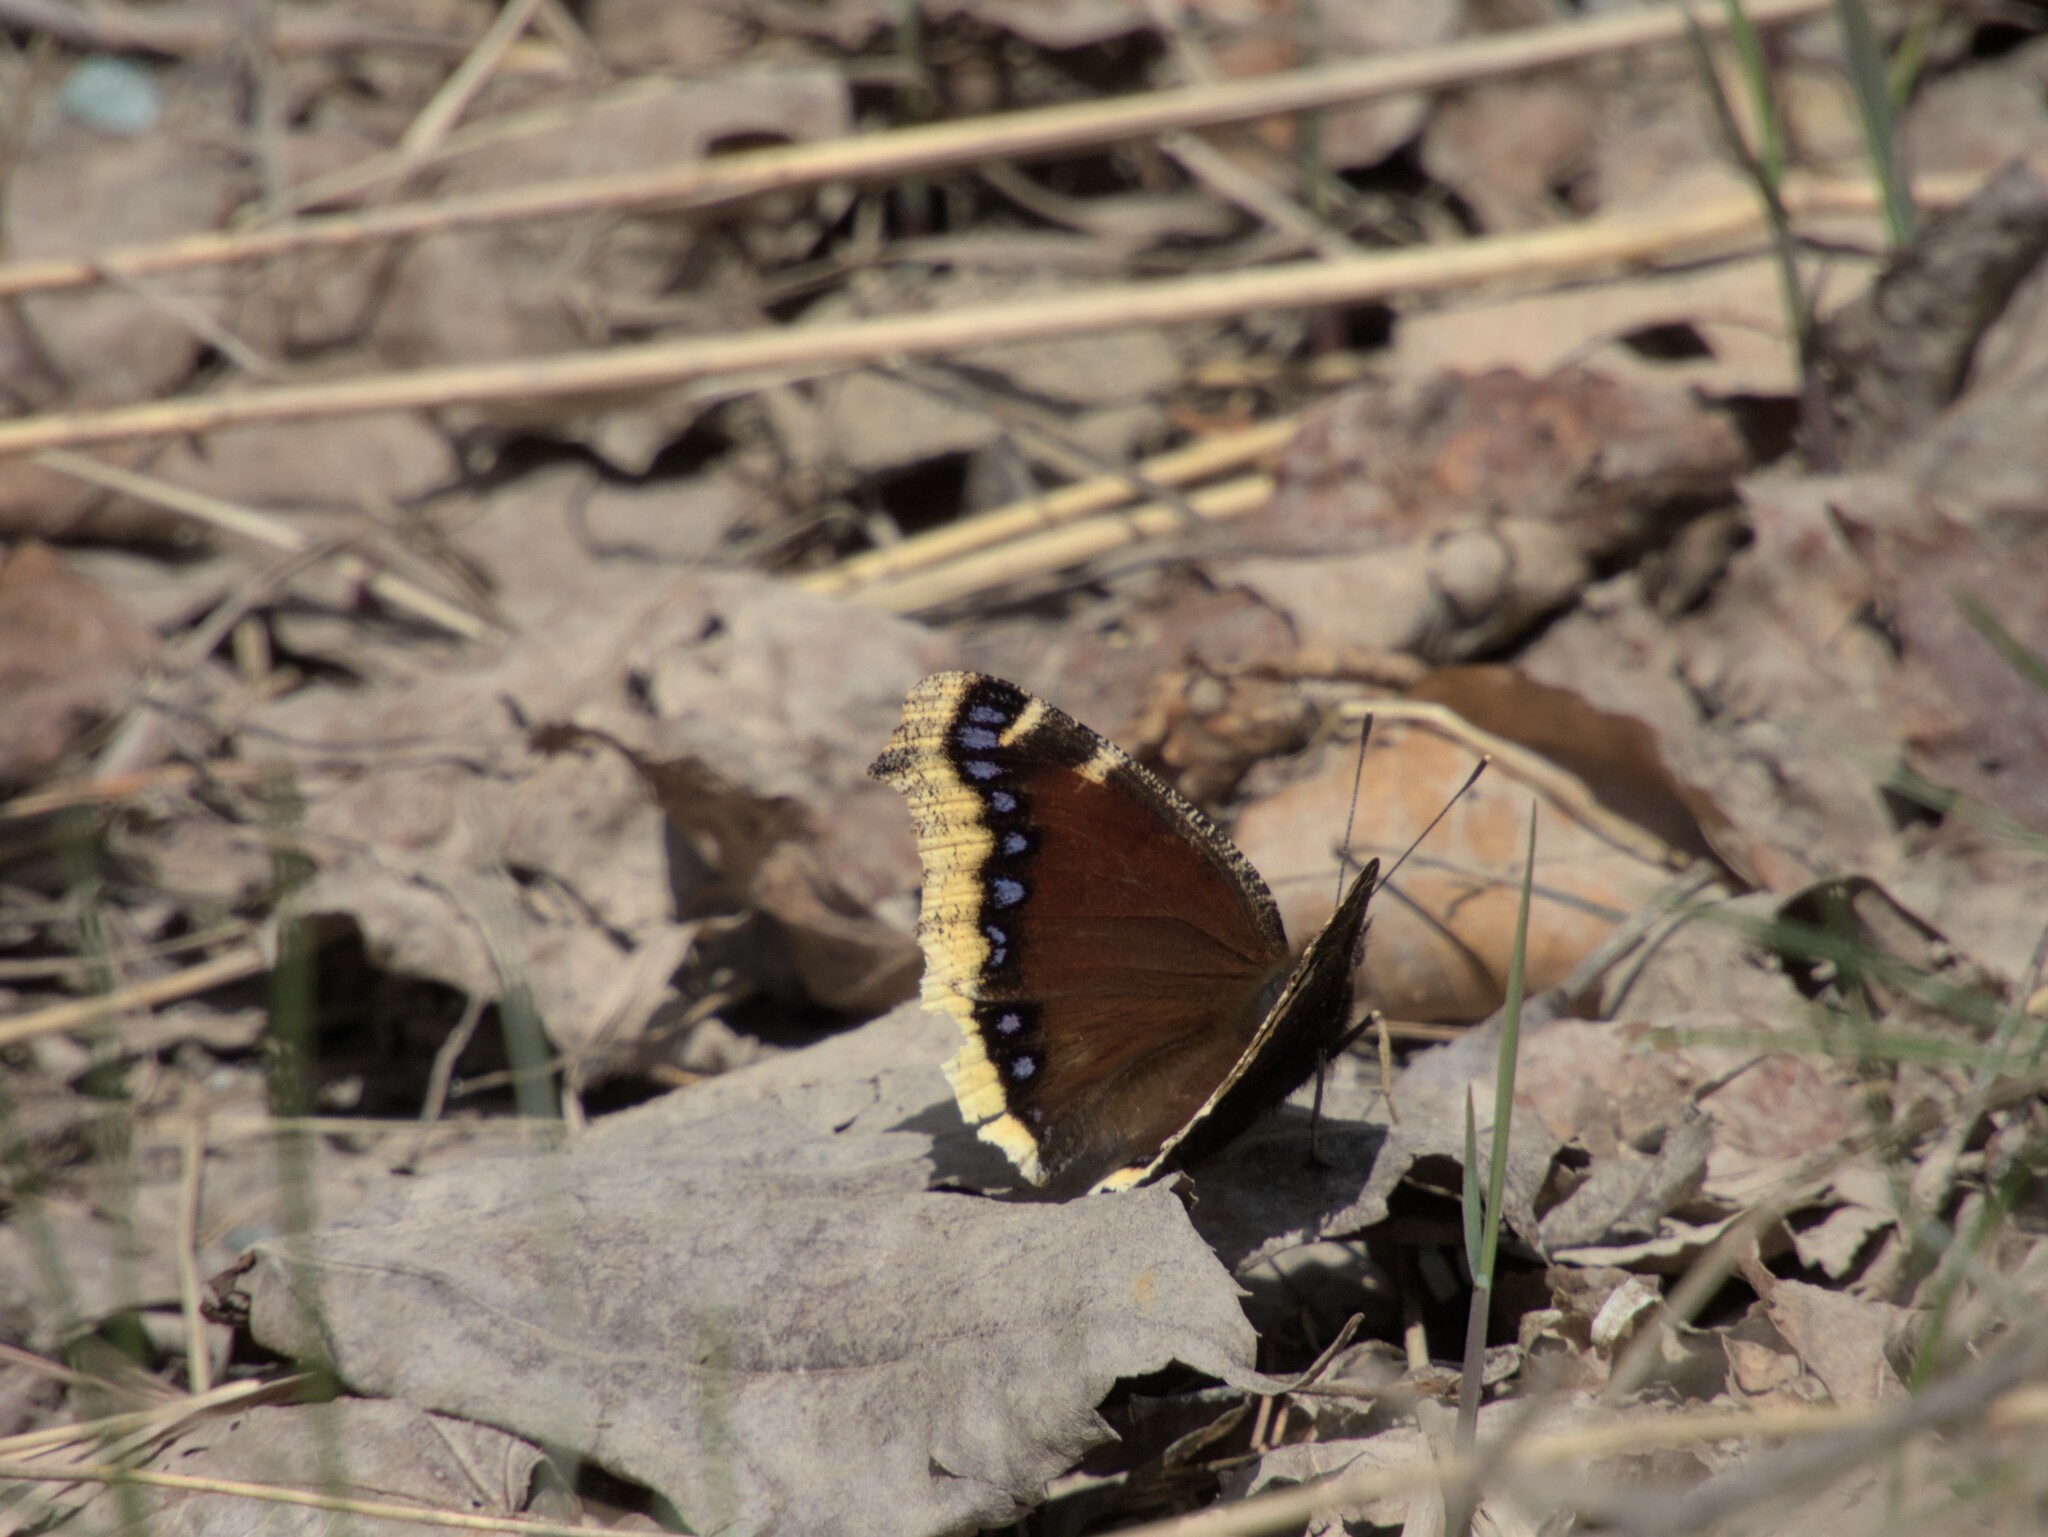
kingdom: Animalia
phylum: Arthropoda
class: Insecta
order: Lepidoptera
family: Nymphalidae
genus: Nymphalis
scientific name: Nymphalis antiopa
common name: Camberwell beauty
